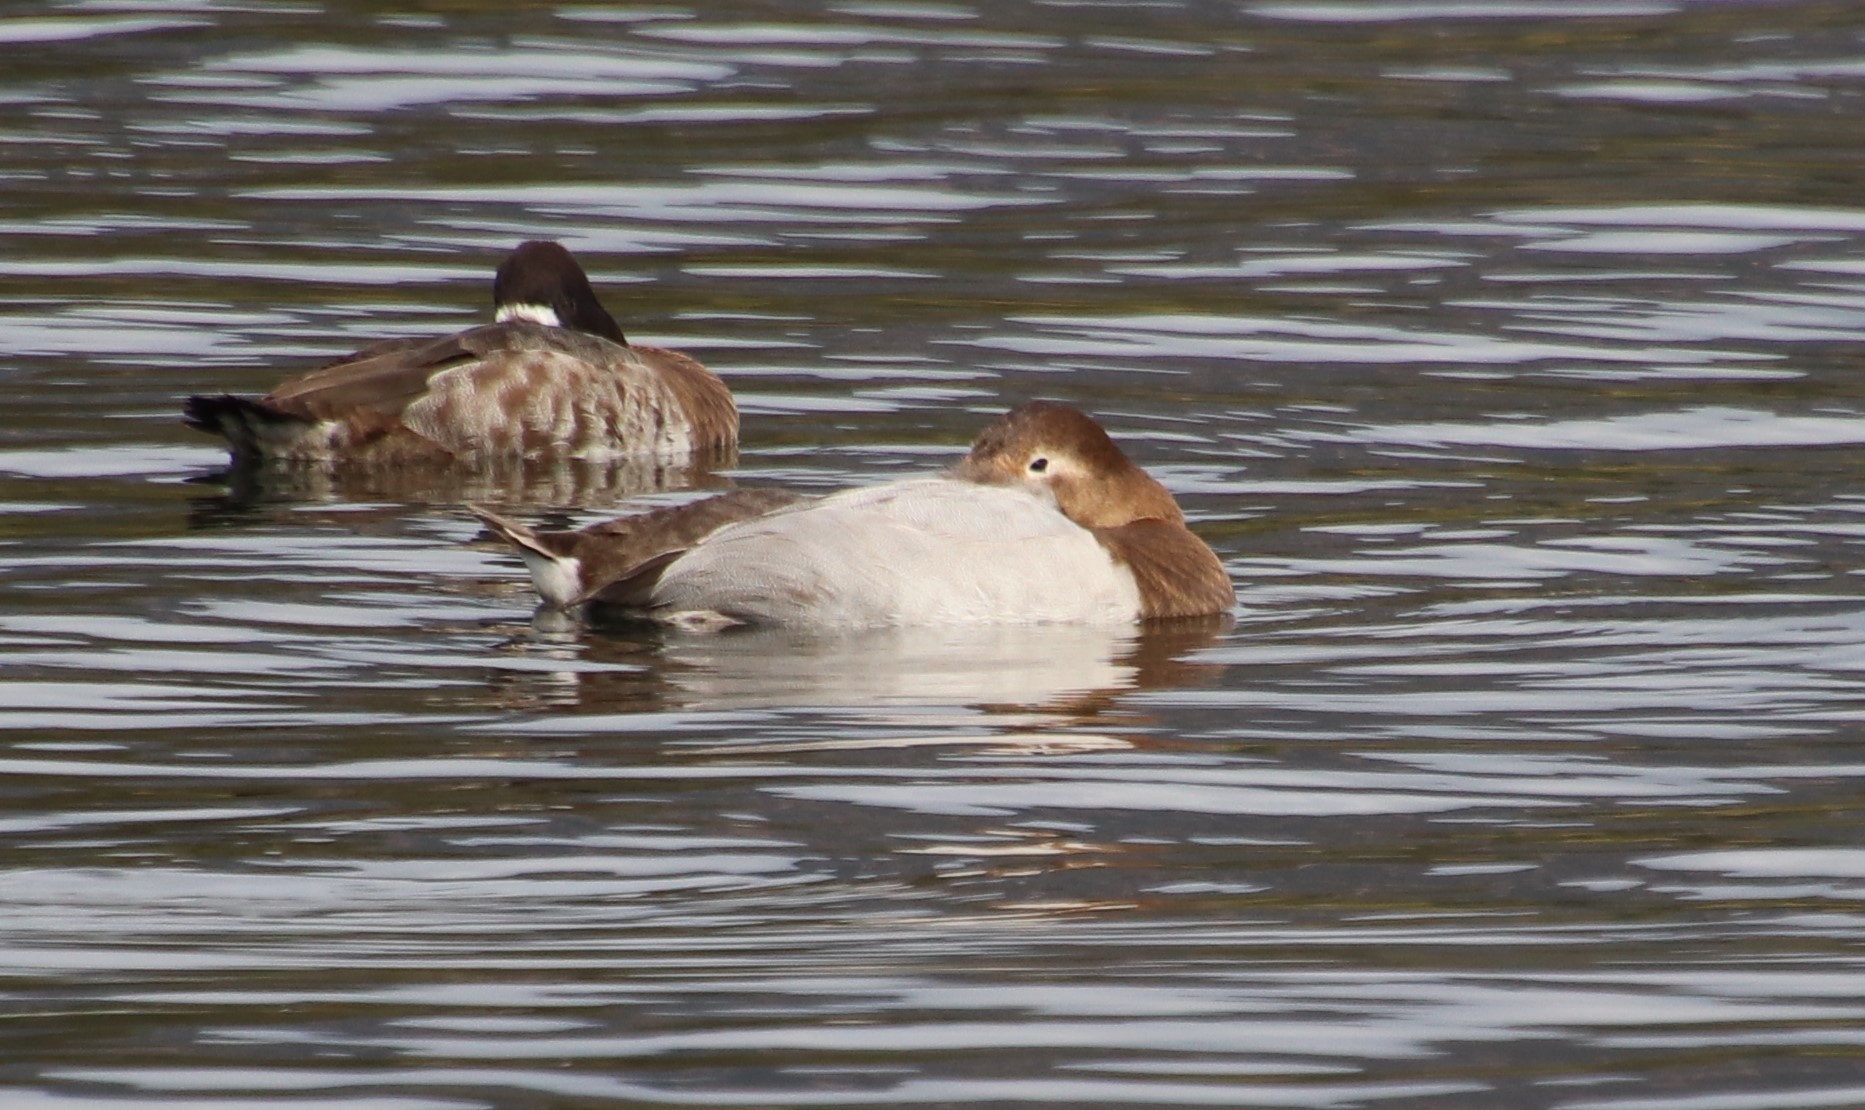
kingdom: Animalia
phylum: Chordata
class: Aves
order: Anseriformes
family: Anatidae
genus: Aythya
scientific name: Aythya valisineria
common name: Canvasback
